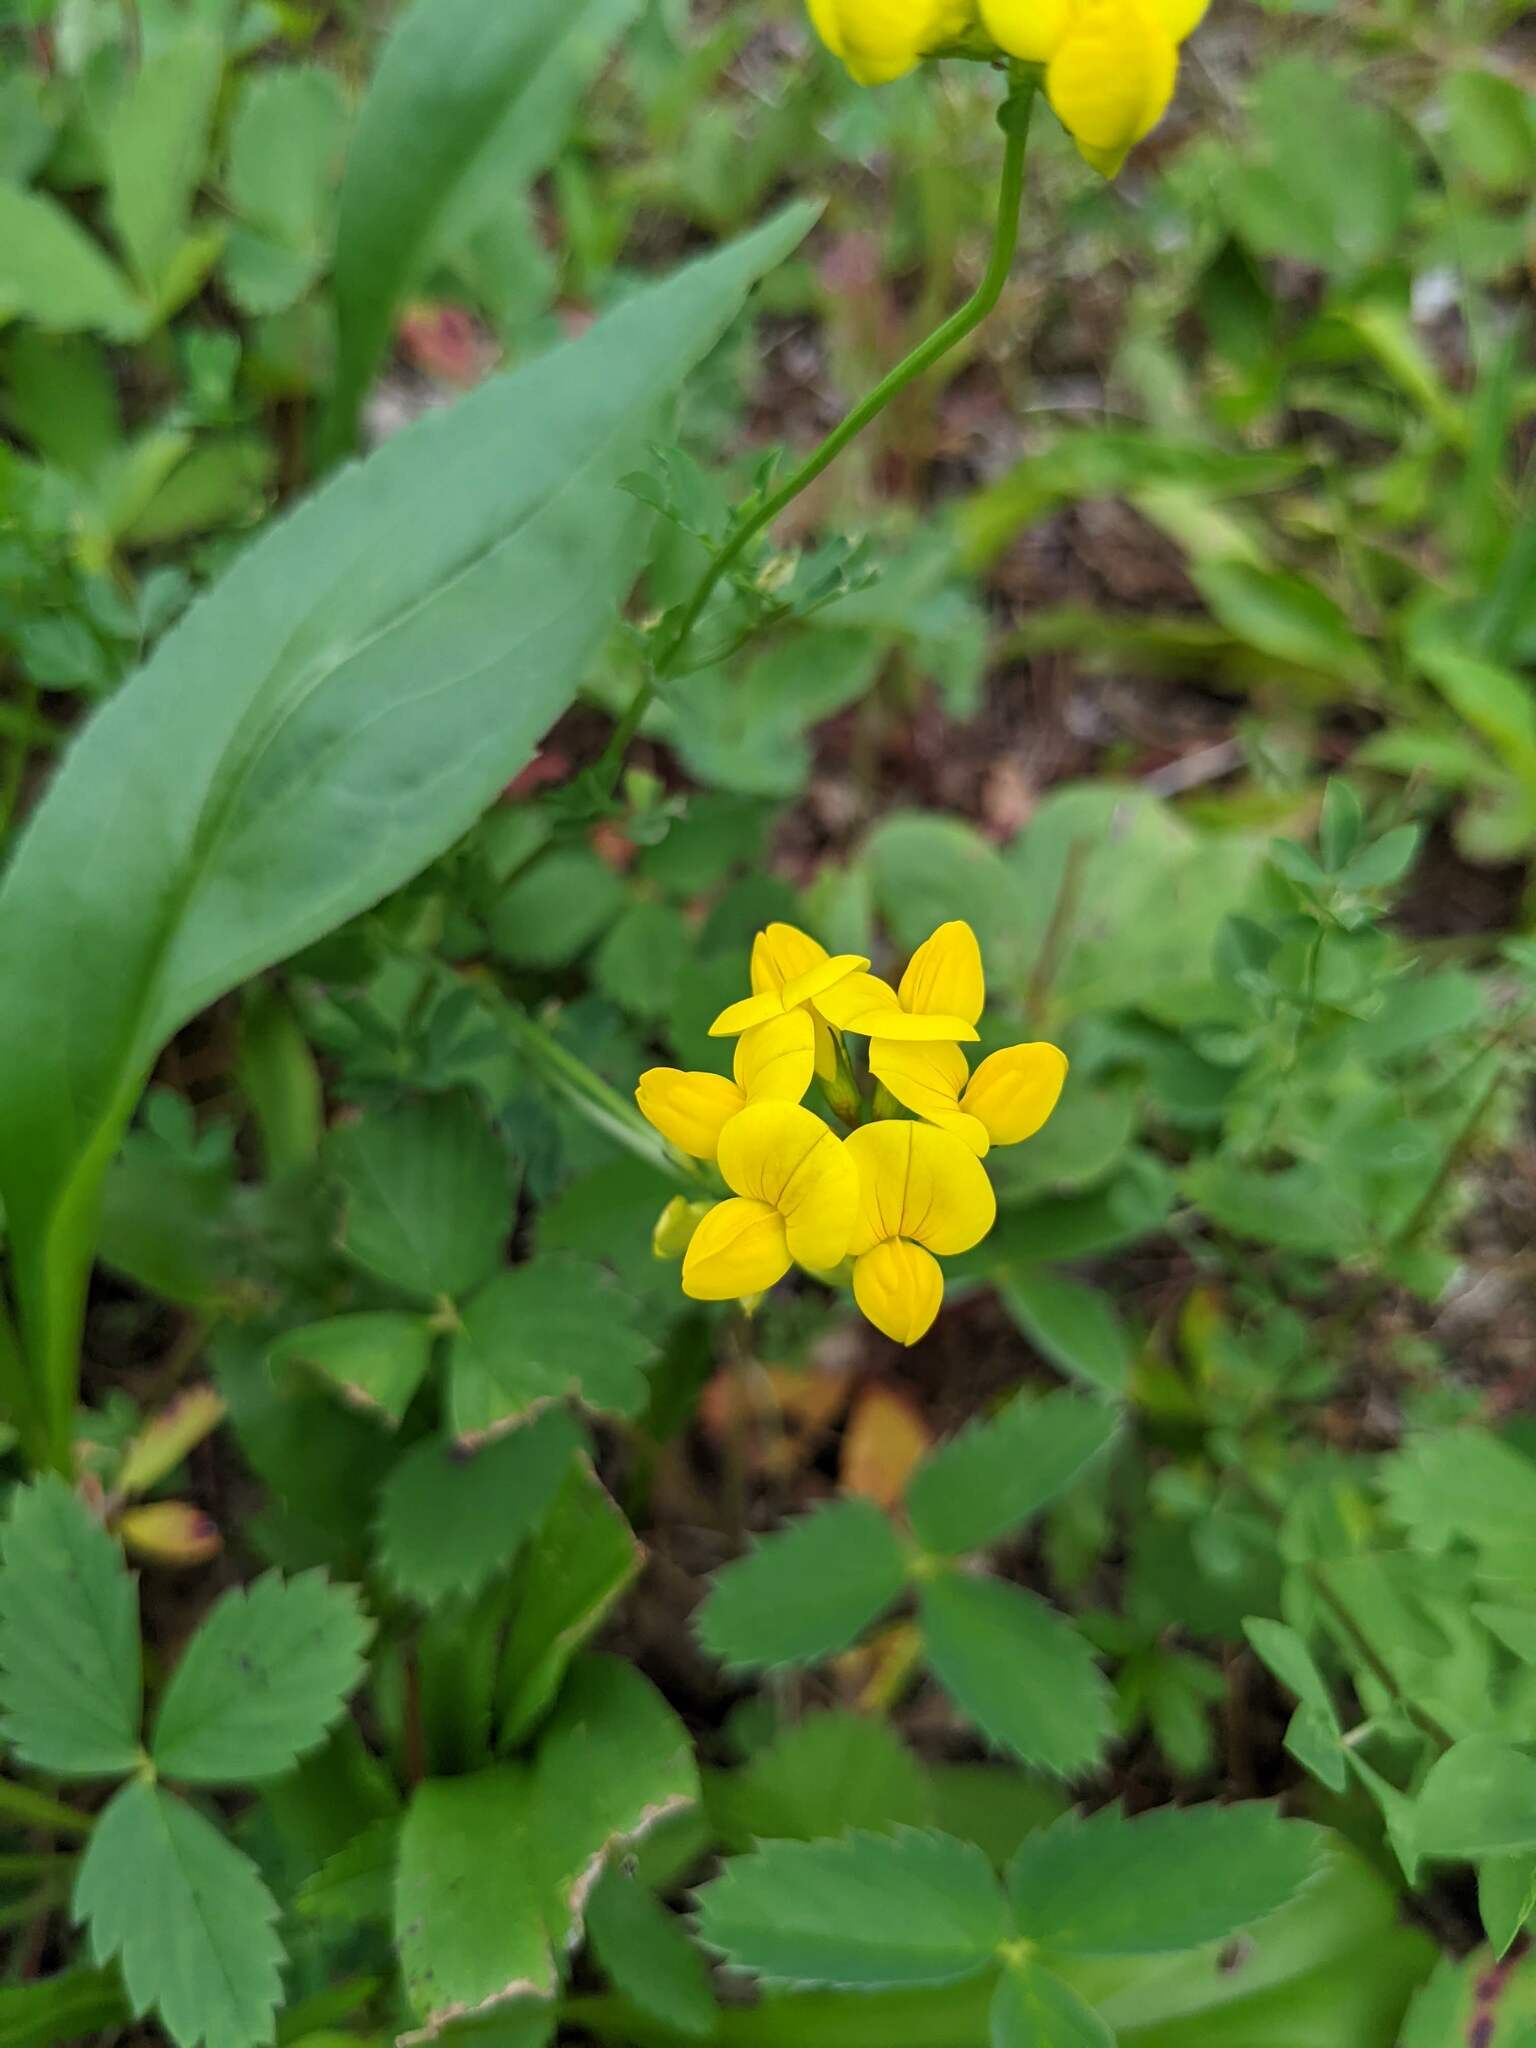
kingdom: Plantae
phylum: Tracheophyta
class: Magnoliopsida
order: Fabales
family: Fabaceae
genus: Lotus
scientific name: Lotus corniculatus
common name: Common bird's-foot-trefoil
